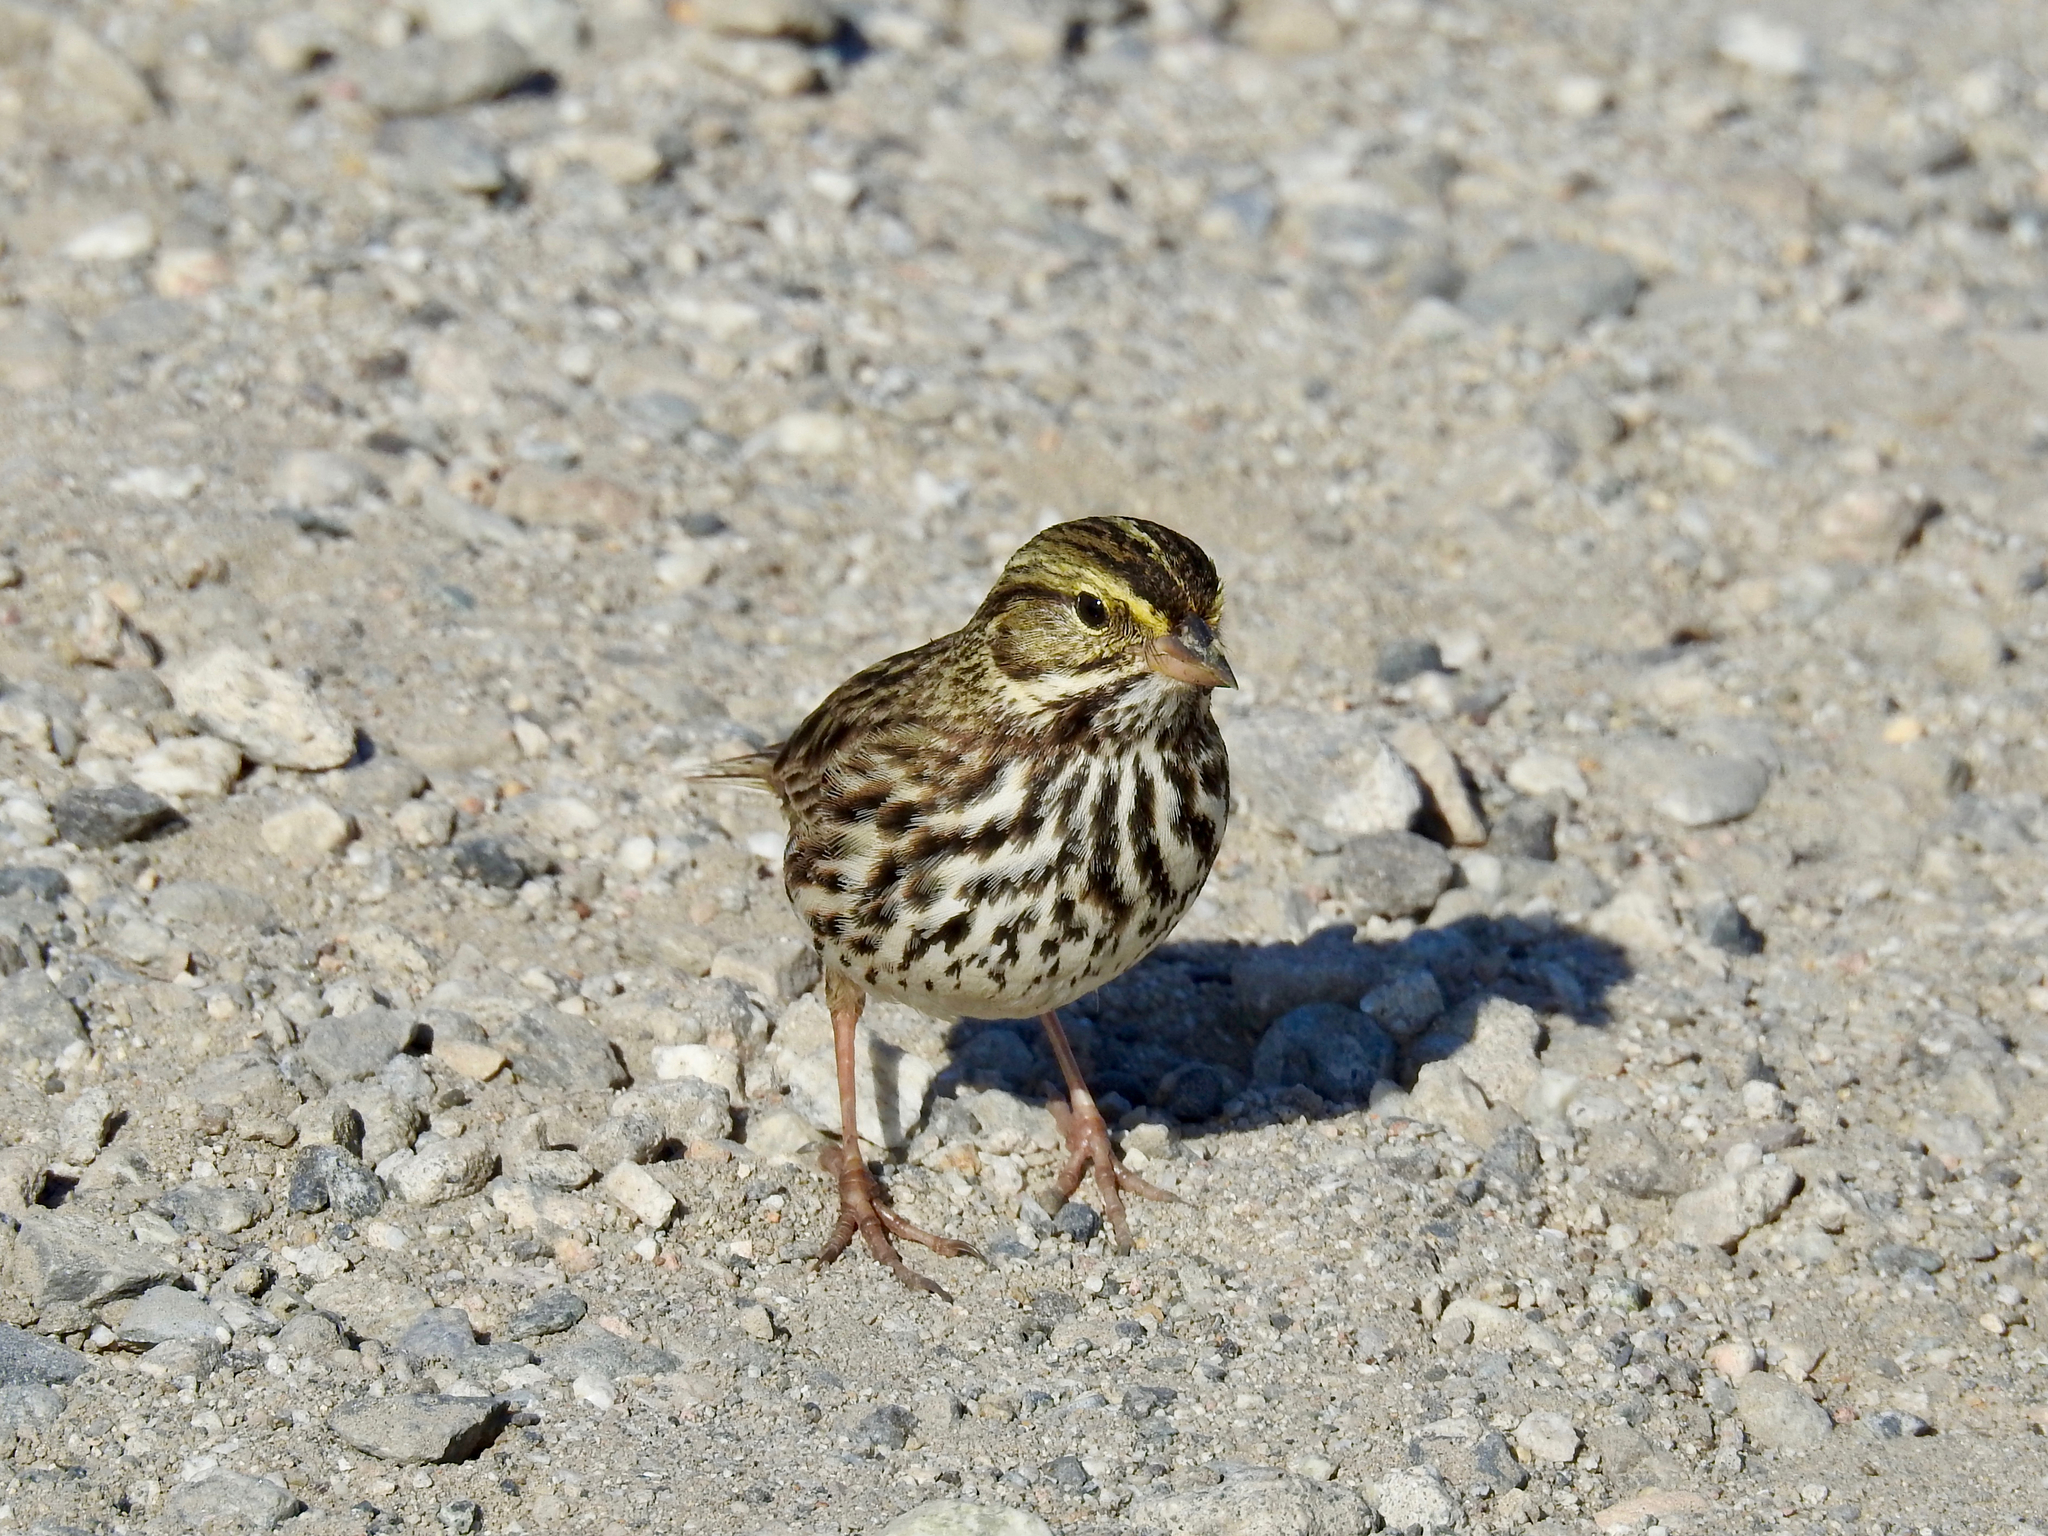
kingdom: Animalia
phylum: Chordata
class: Aves
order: Passeriformes
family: Passerellidae
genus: Passerculus
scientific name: Passerculus sandwichensis
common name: Savannah sparrow
